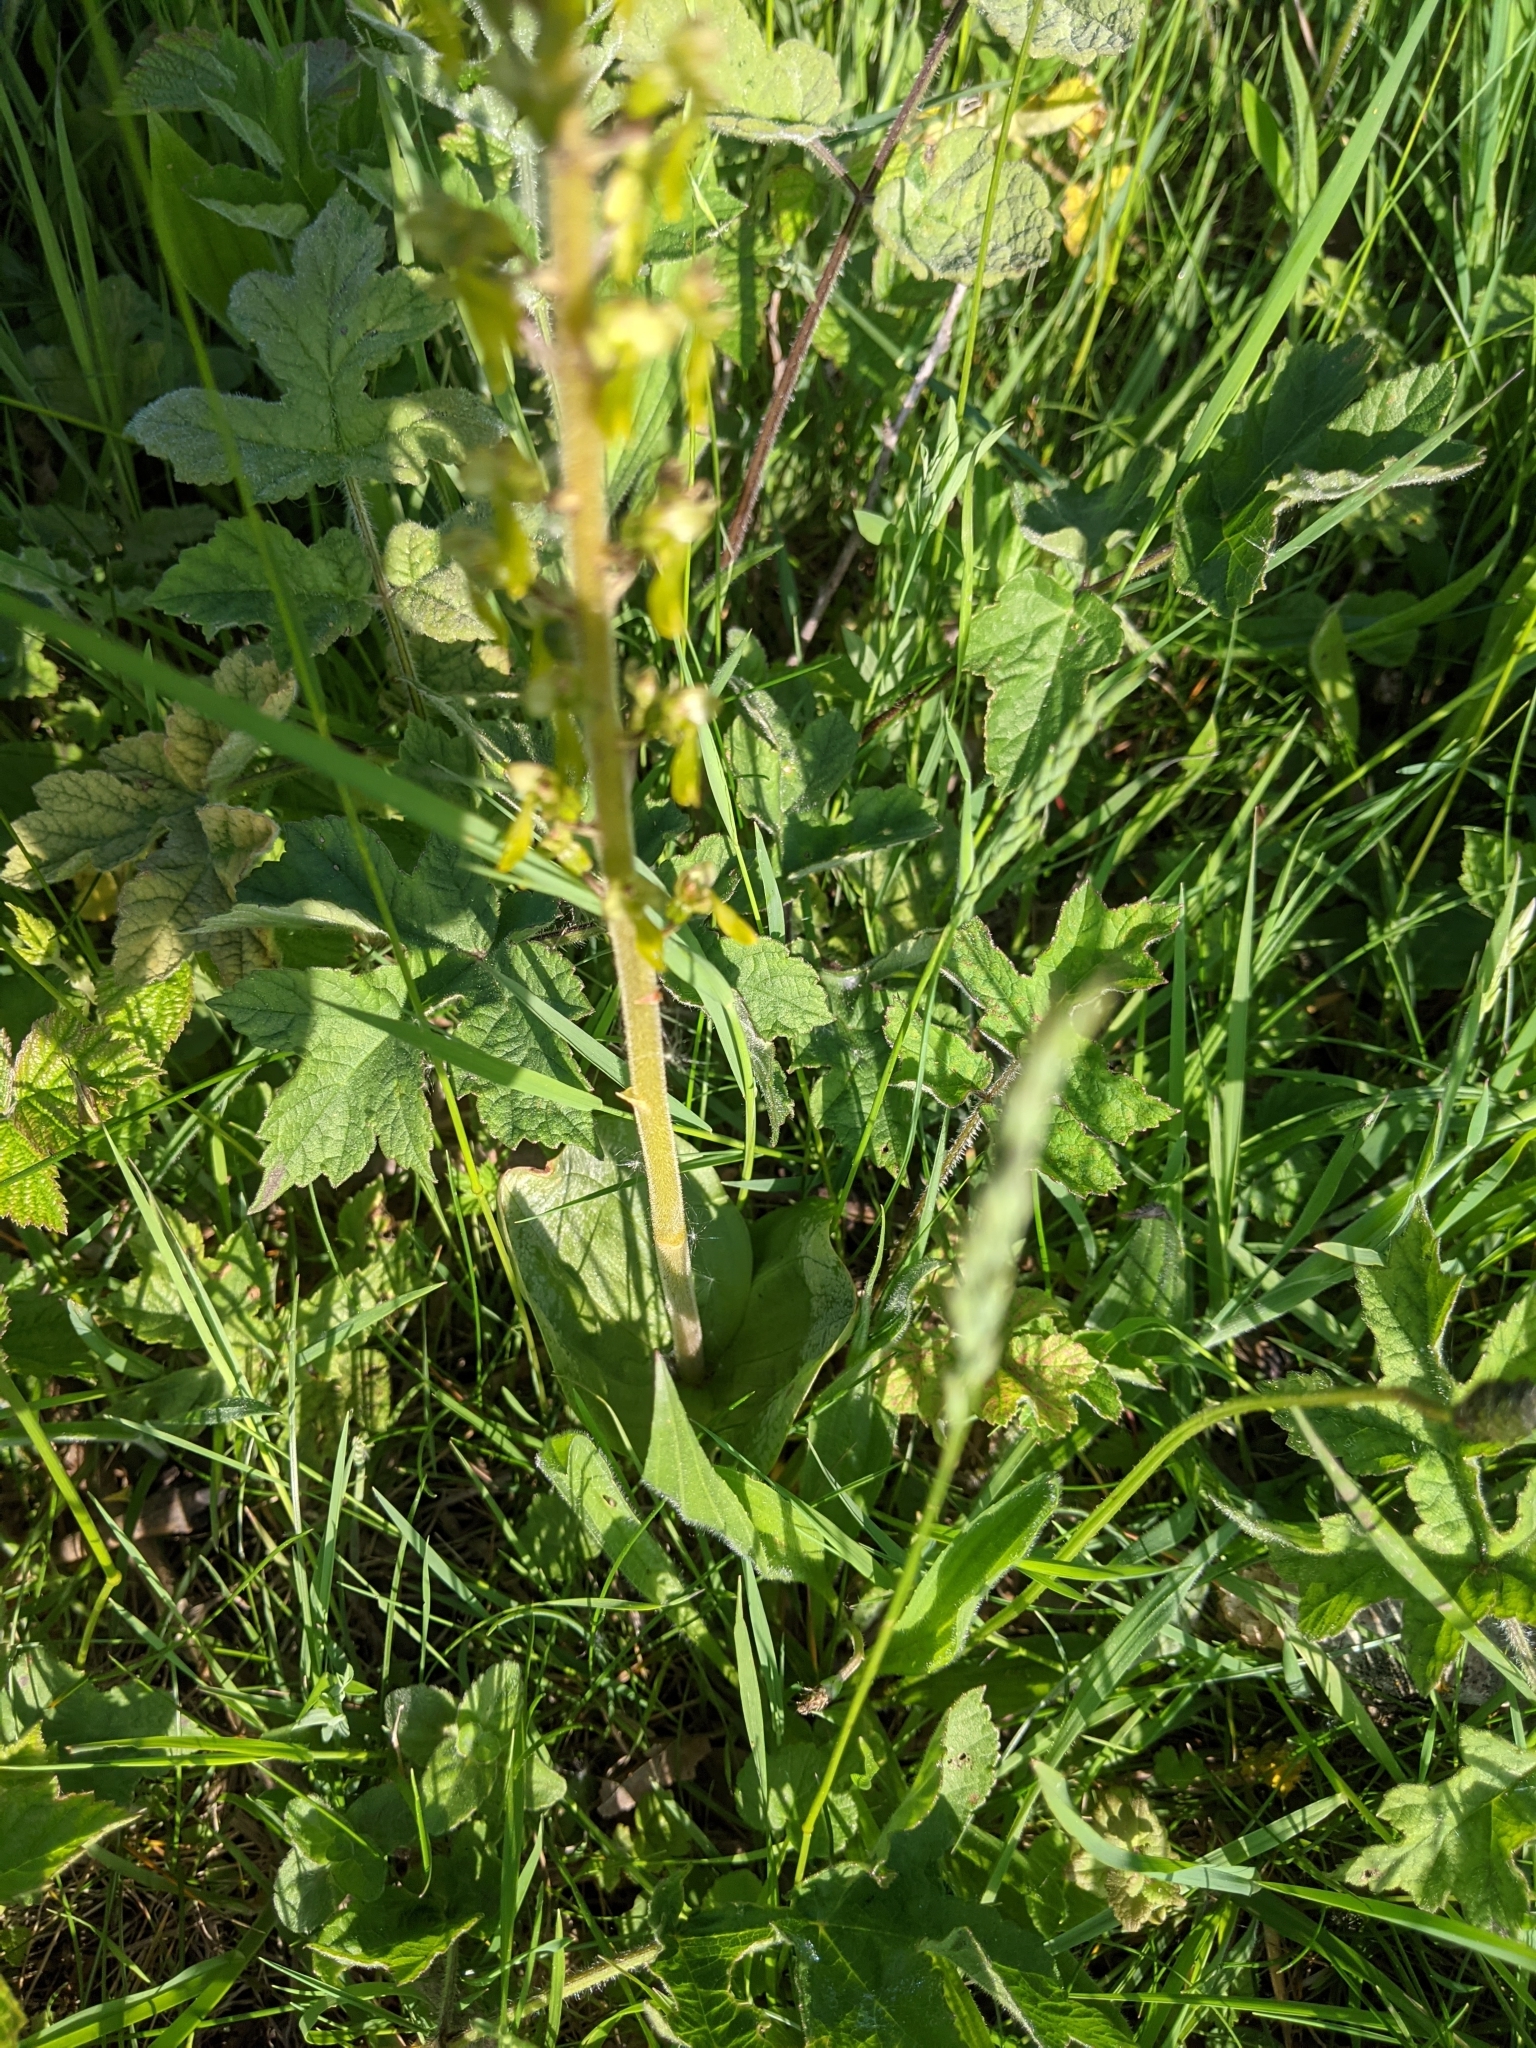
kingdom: Plantae
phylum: Tracheophyta
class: Liliopsida
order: Asparagales
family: Orchidaceae
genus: Neottia
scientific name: Neottia ovata
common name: Common twayblade
